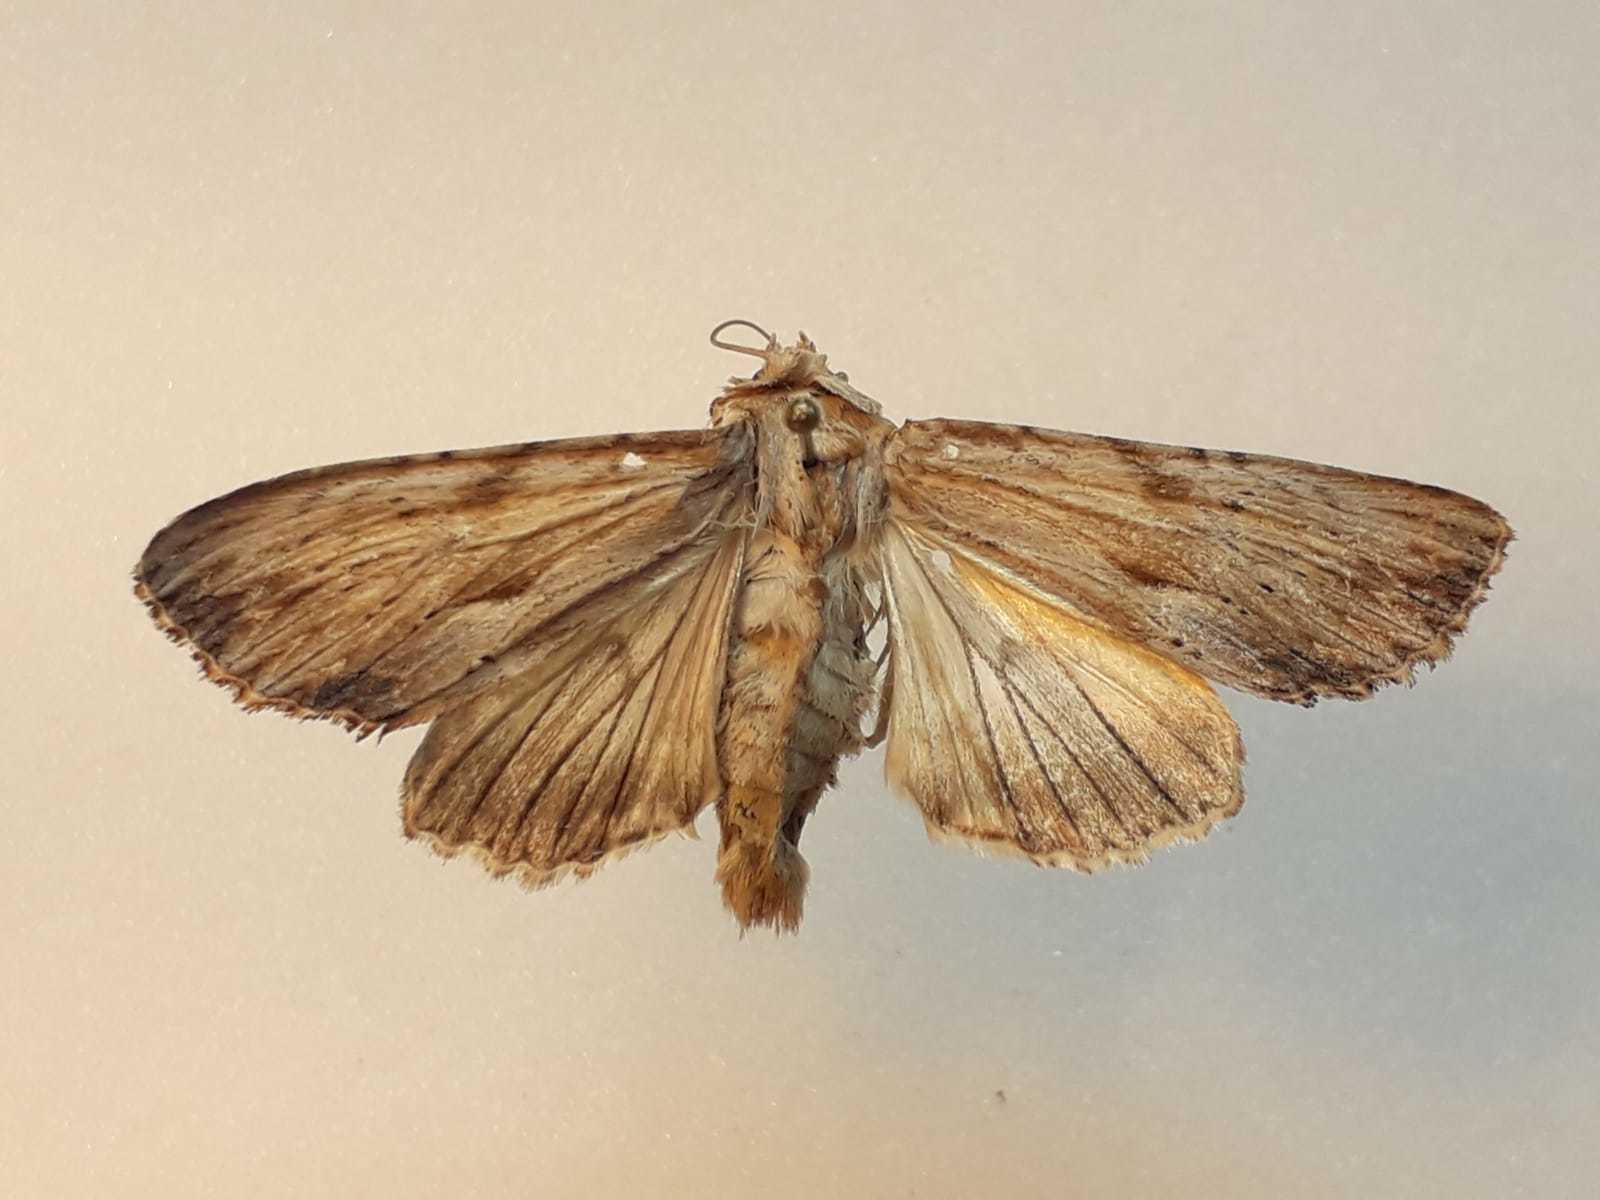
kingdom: Animalia
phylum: Arthropoda
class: Insecta
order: Lepidoptera
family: Noctuidae
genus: Apamea
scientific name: Apamea lithoxylaea
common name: Light arches
